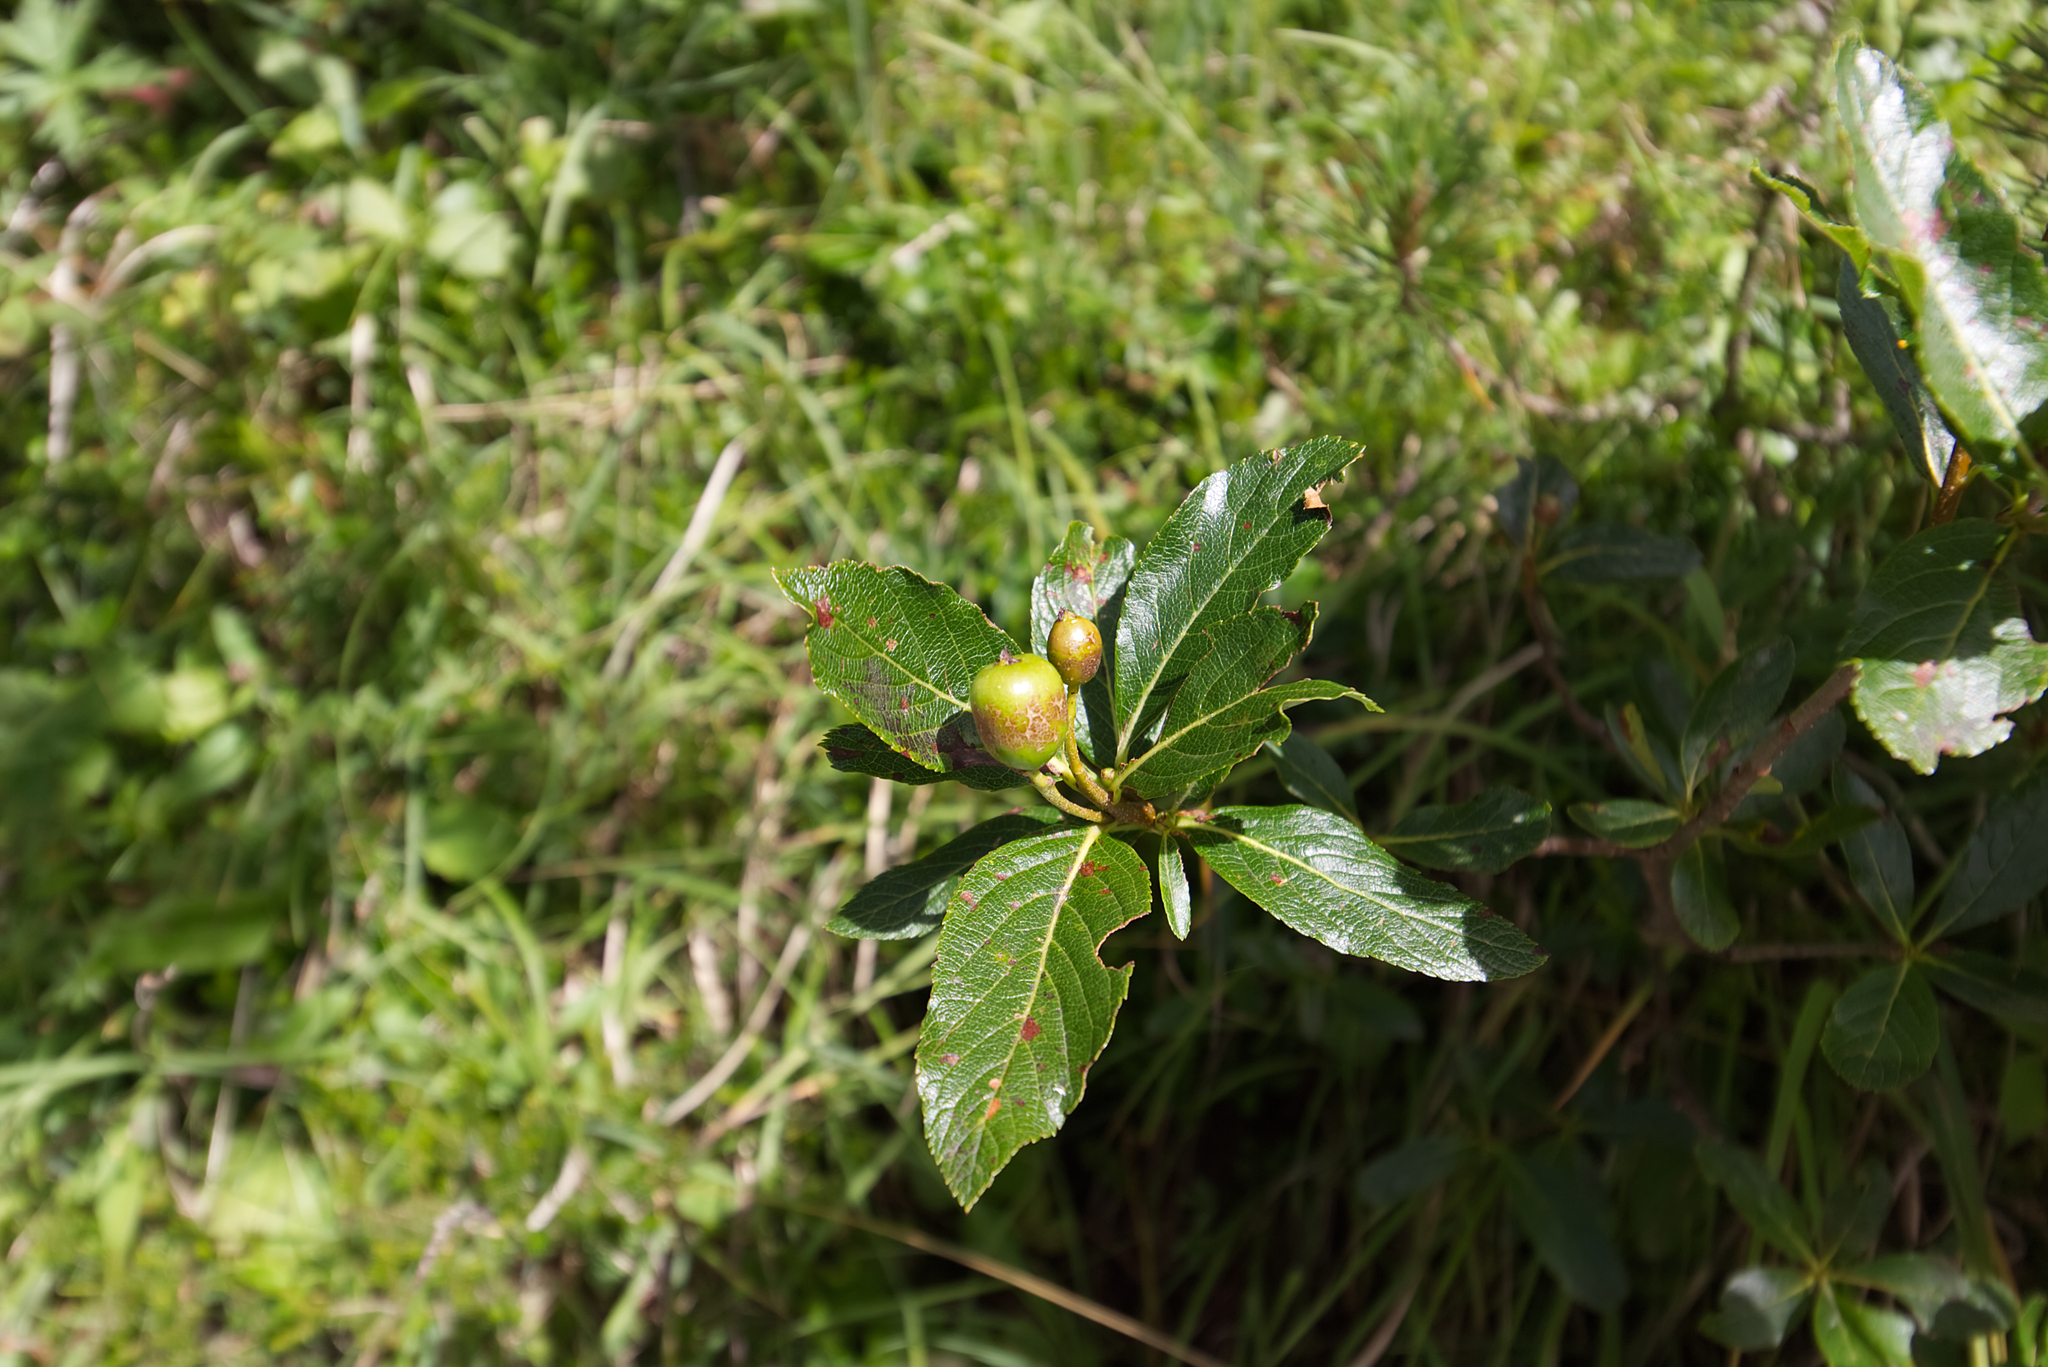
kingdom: Plantae
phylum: Tracheophyta
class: Magnoliopsida
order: Rosales
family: Rosaceae
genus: Chamaemespilus
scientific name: Chamaemespilus alpina
